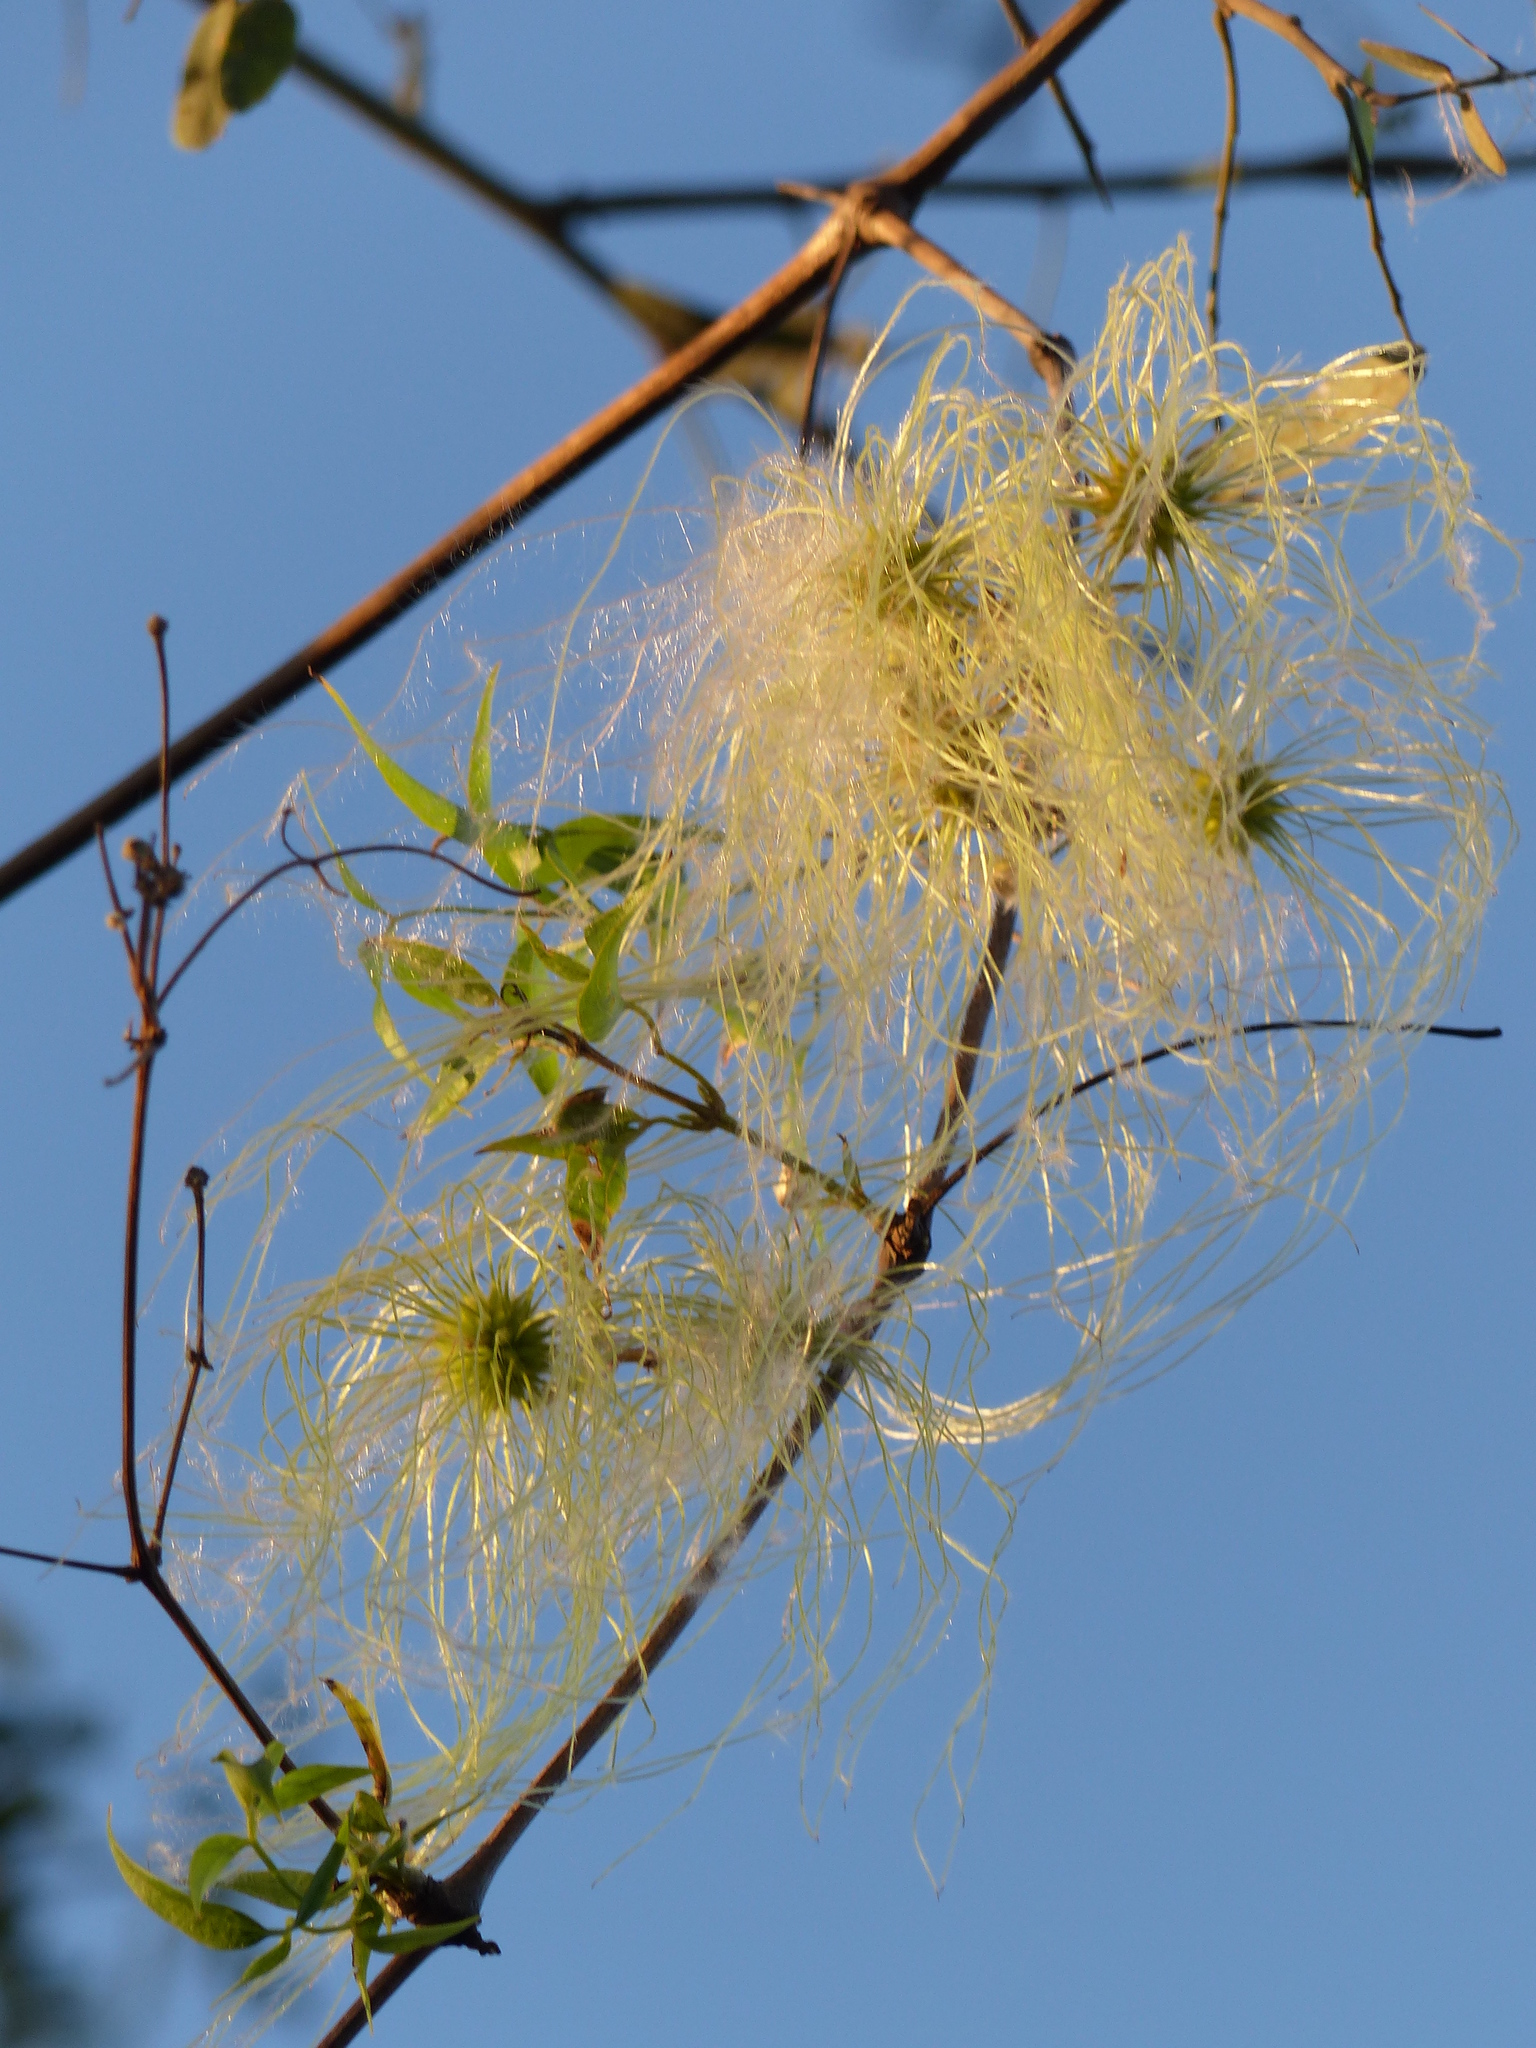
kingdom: Plantae
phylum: Tracheophyta
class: Magnoliopsida
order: Ranunculales
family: Ranunculaceae
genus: Clematis
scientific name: Clematis montevidensis
